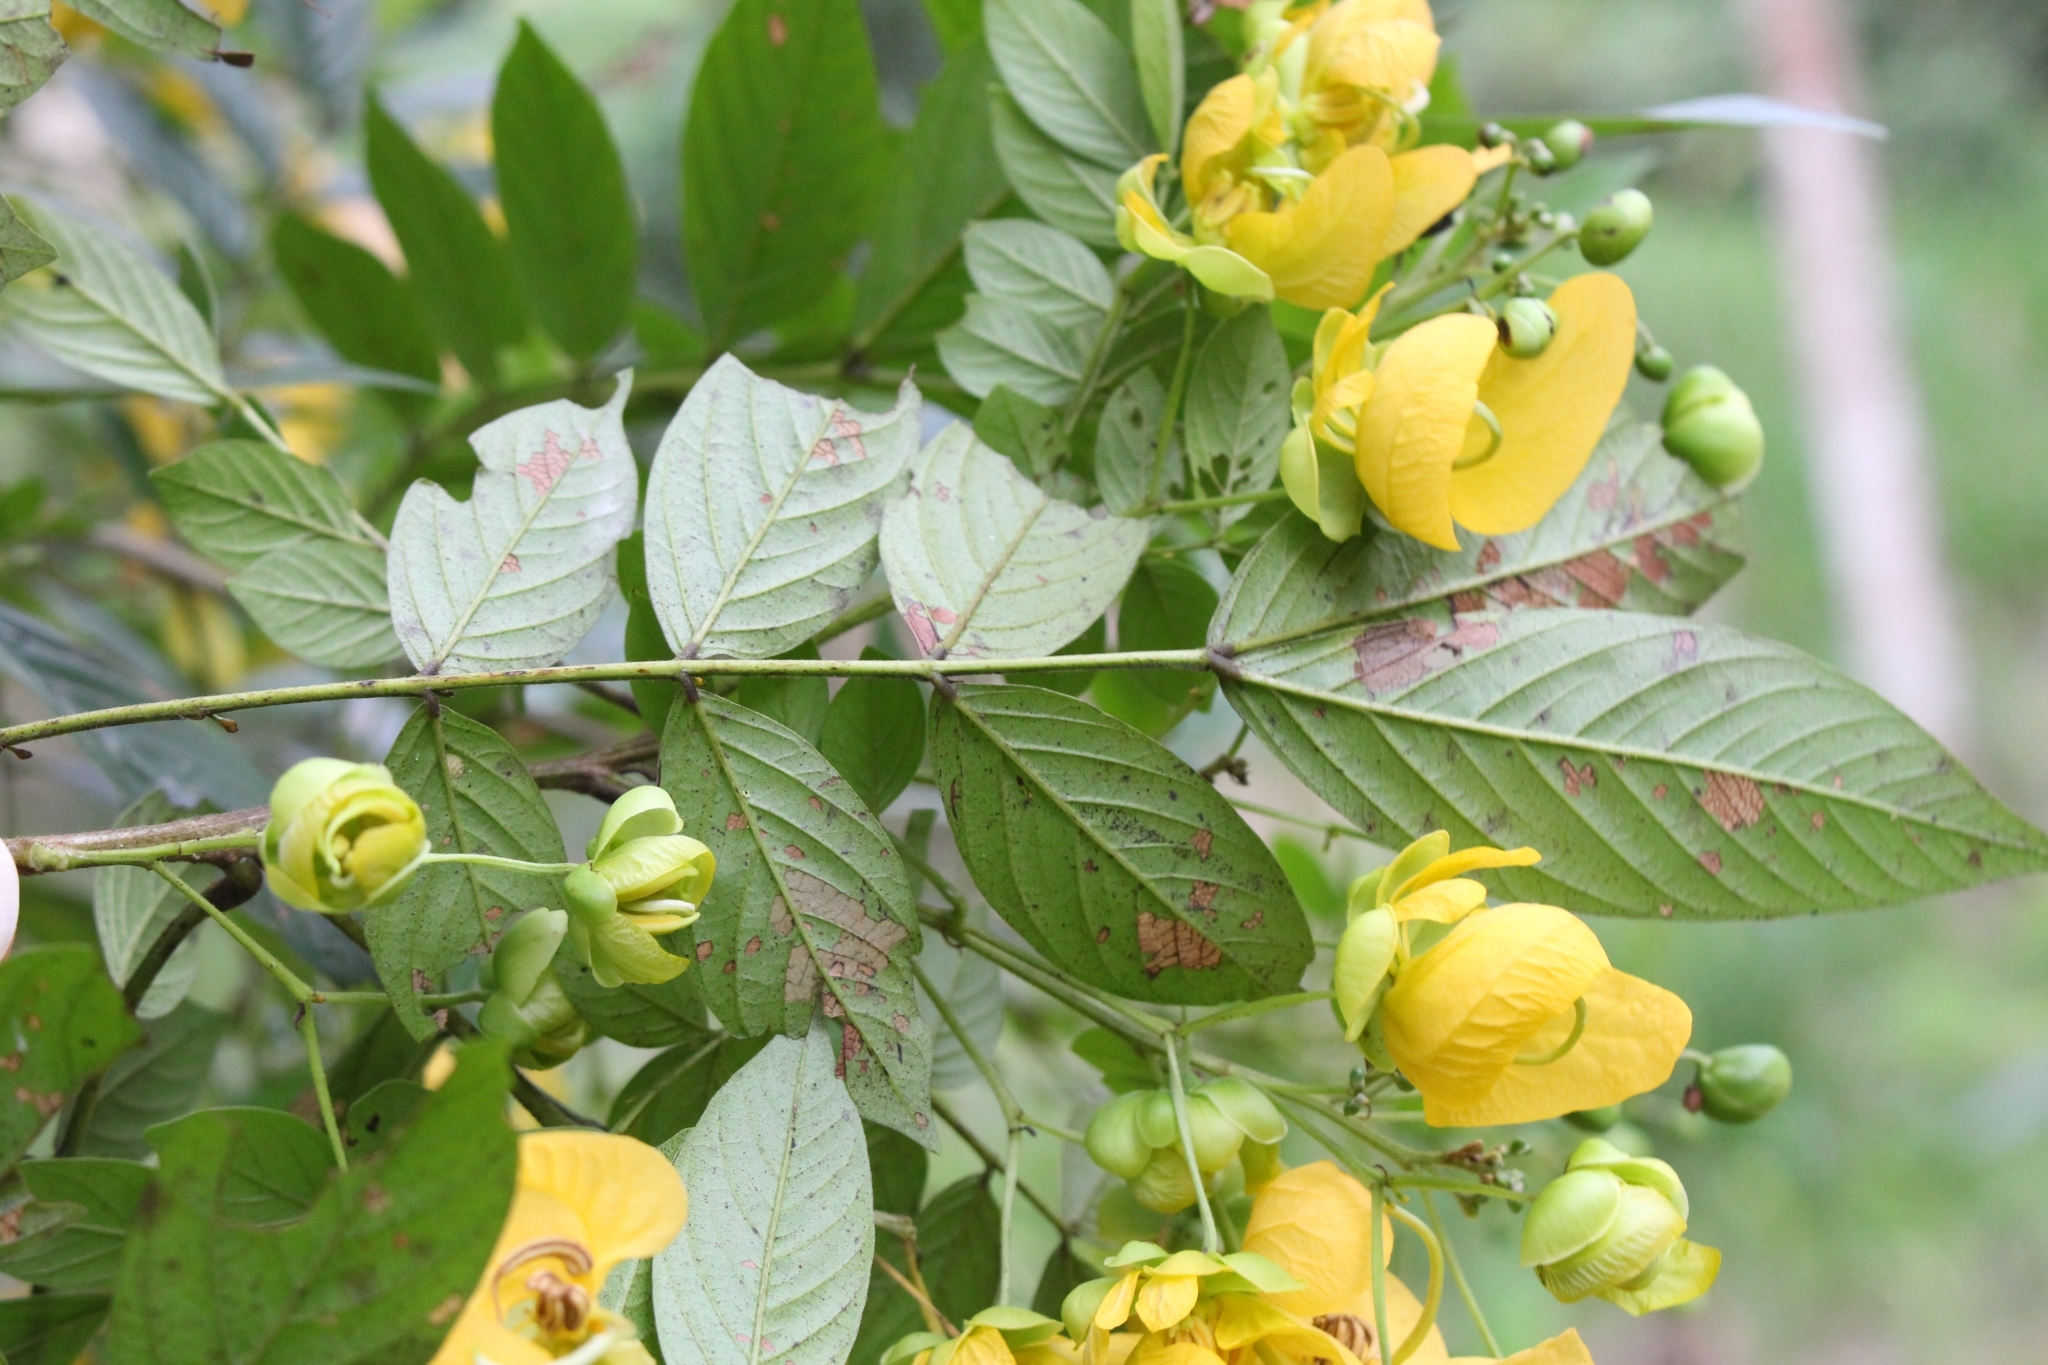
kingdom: Plantae
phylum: Tracheophyta
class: Magnoliopsida
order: Fabales
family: Fabaceae
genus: Senna
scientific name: Senna tonduzii
